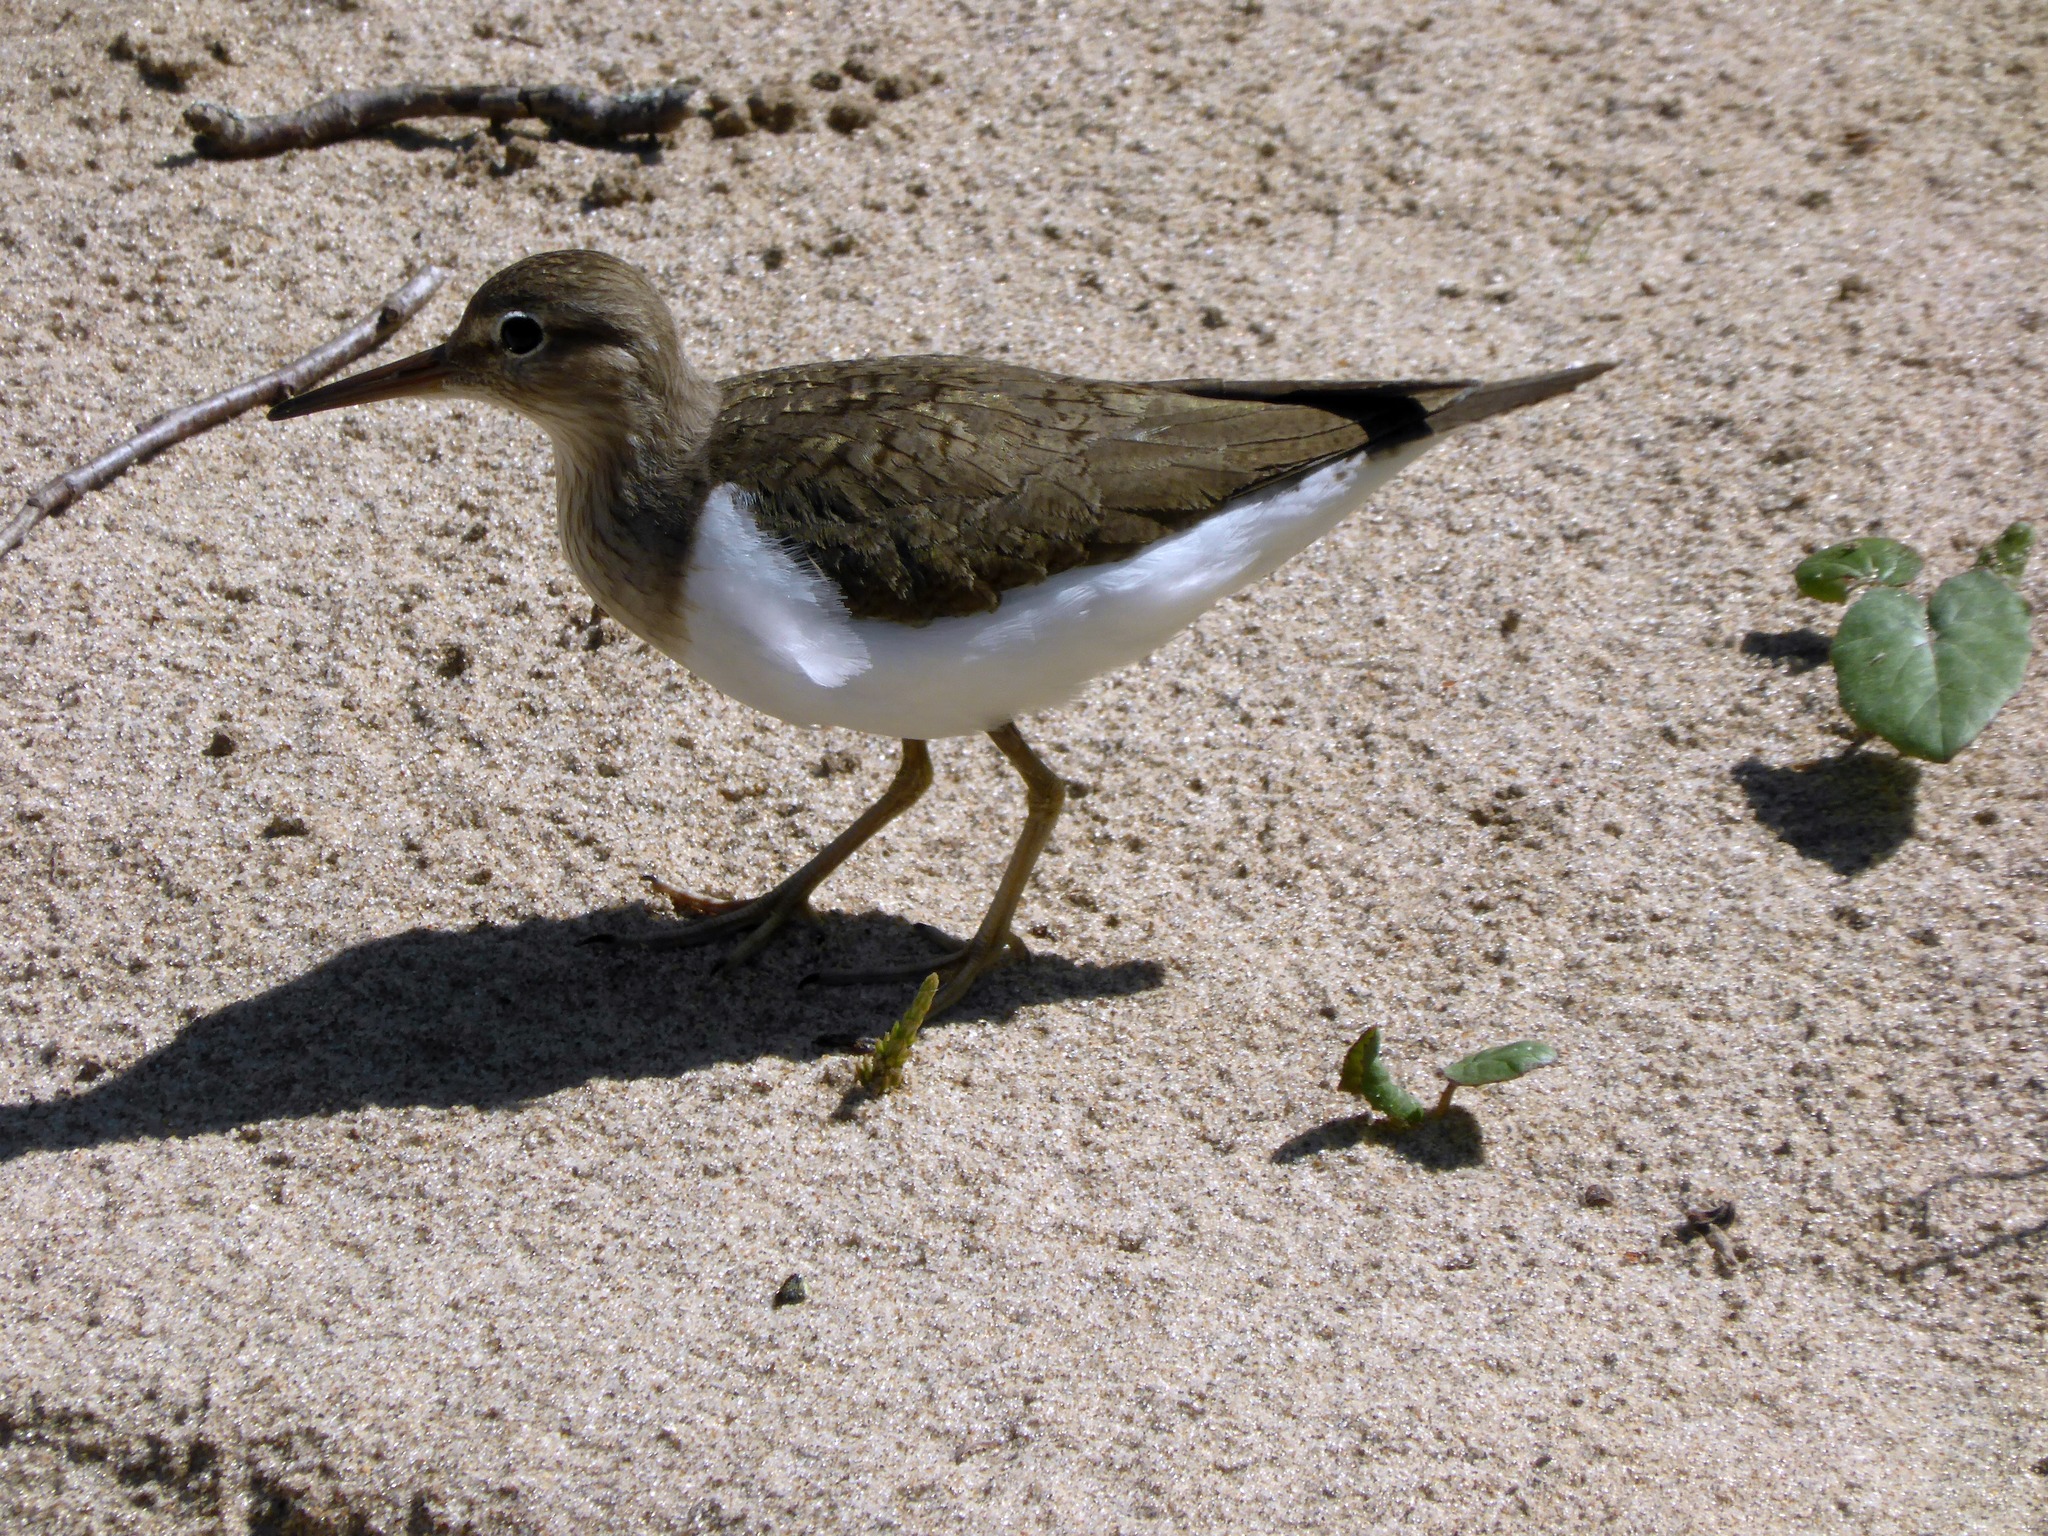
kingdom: Animalia
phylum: Chordata
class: Aves
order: Charadriiformes
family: Scolopacidae
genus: Actitis
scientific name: Actitis hypoleucos
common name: Common sandpiper
